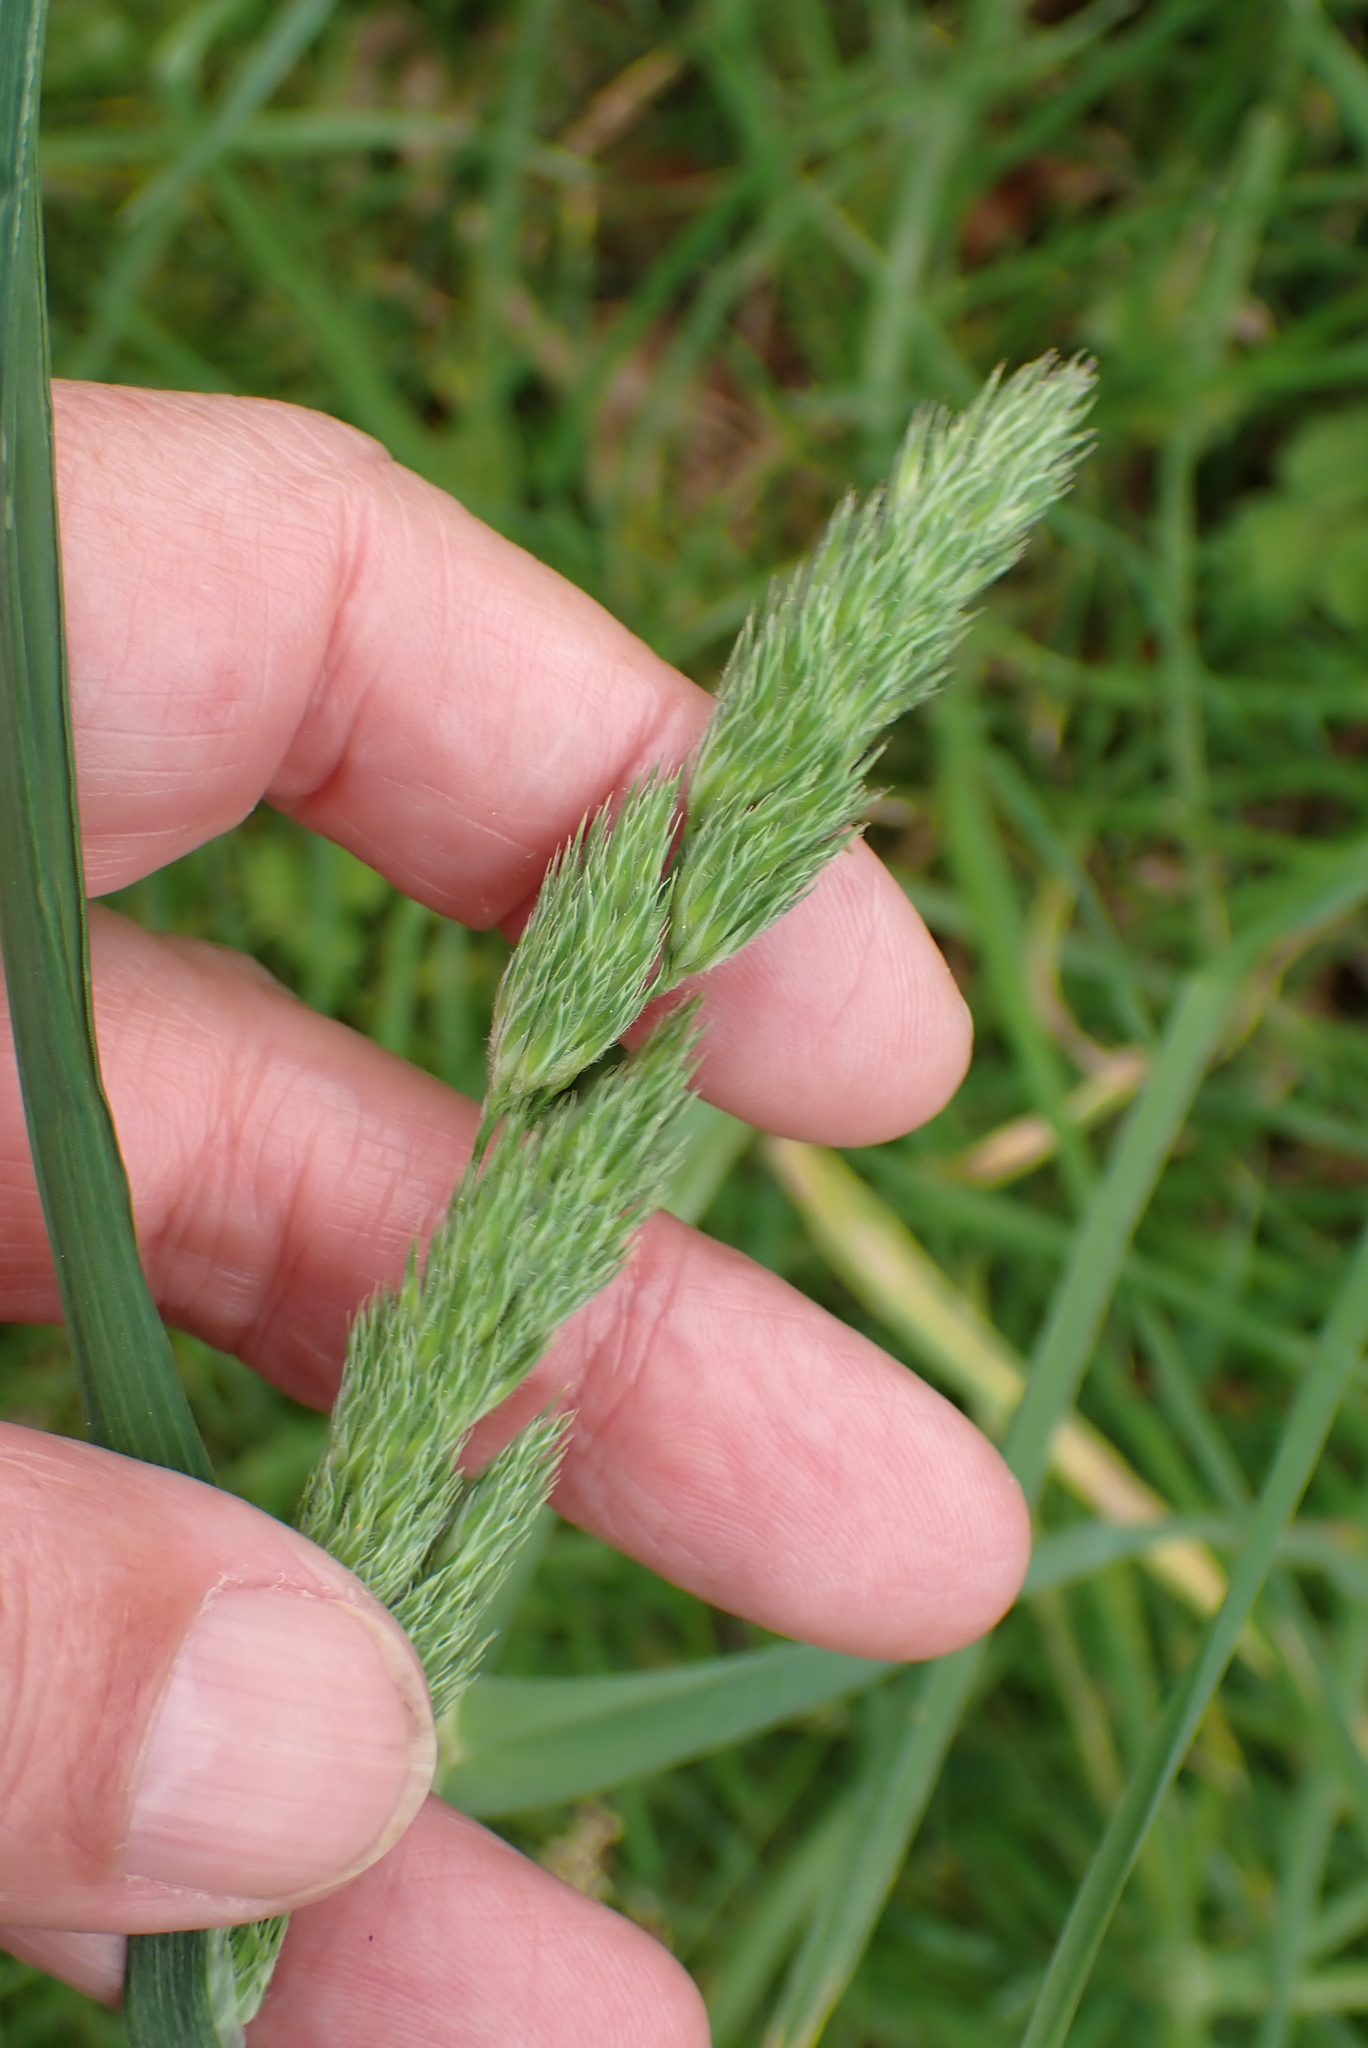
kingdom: Plantae
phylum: Tracheophyta
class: Liliopsida
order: Poales
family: Poaceae
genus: Dactylis
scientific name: Dactylis glomerata
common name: Orchardgrass
